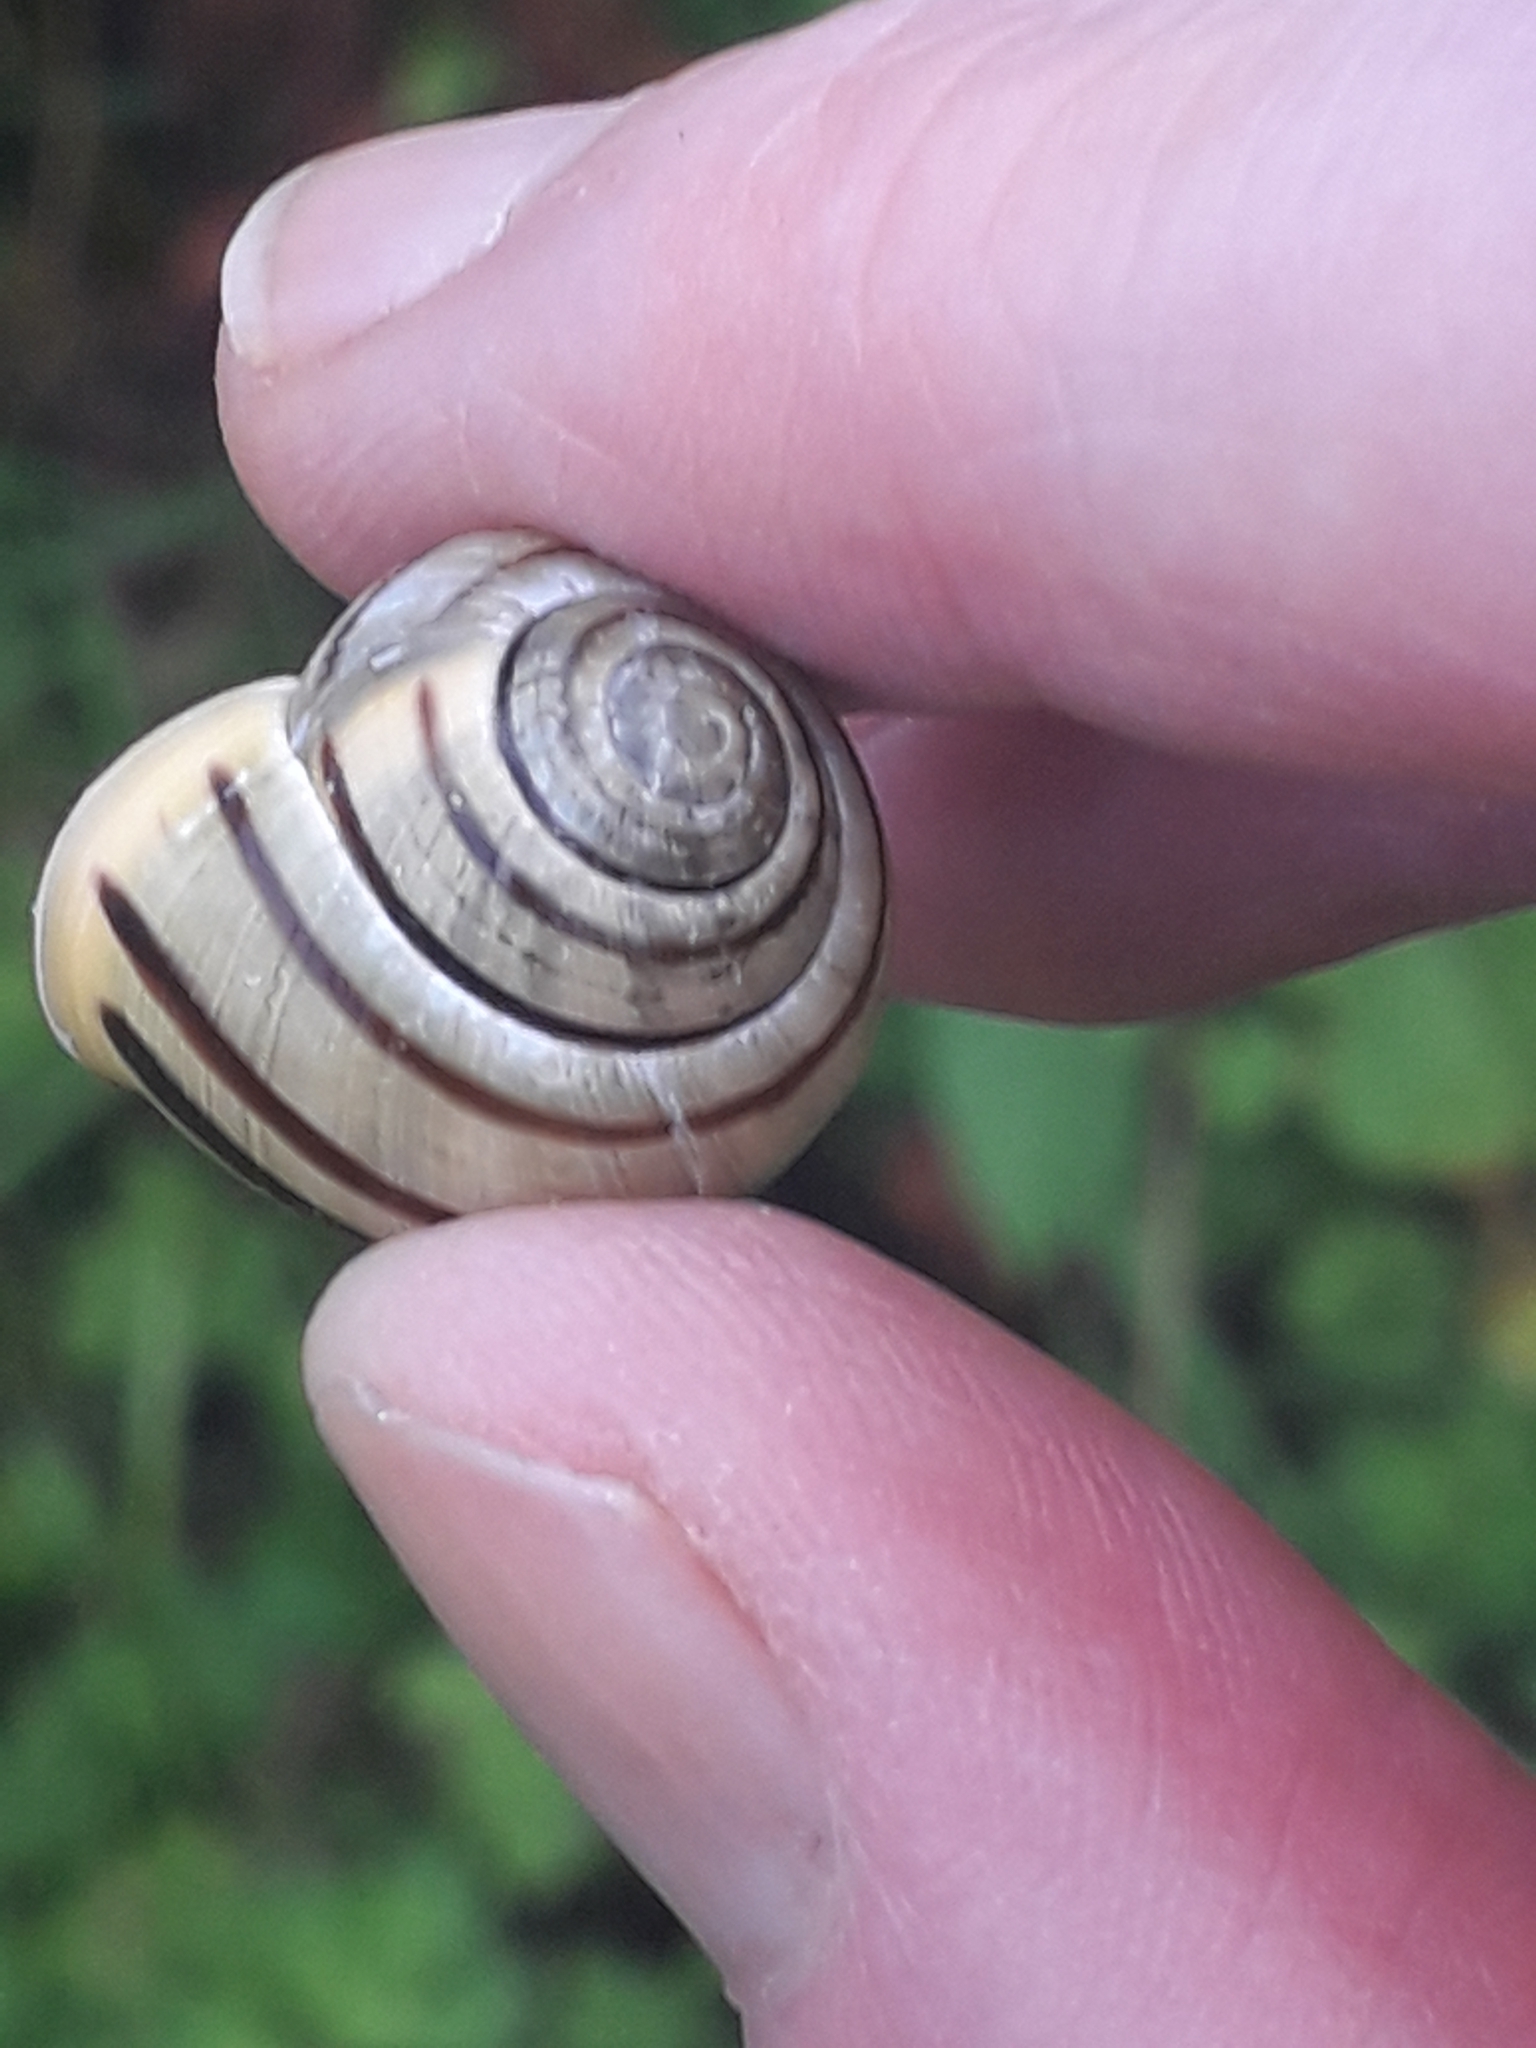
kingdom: Animalia
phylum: Mollusca
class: Gastropoda
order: Stylommatophora
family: Helicidae
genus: Cepaea
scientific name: Cepaea hortensis
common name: White-lip gardensnail
